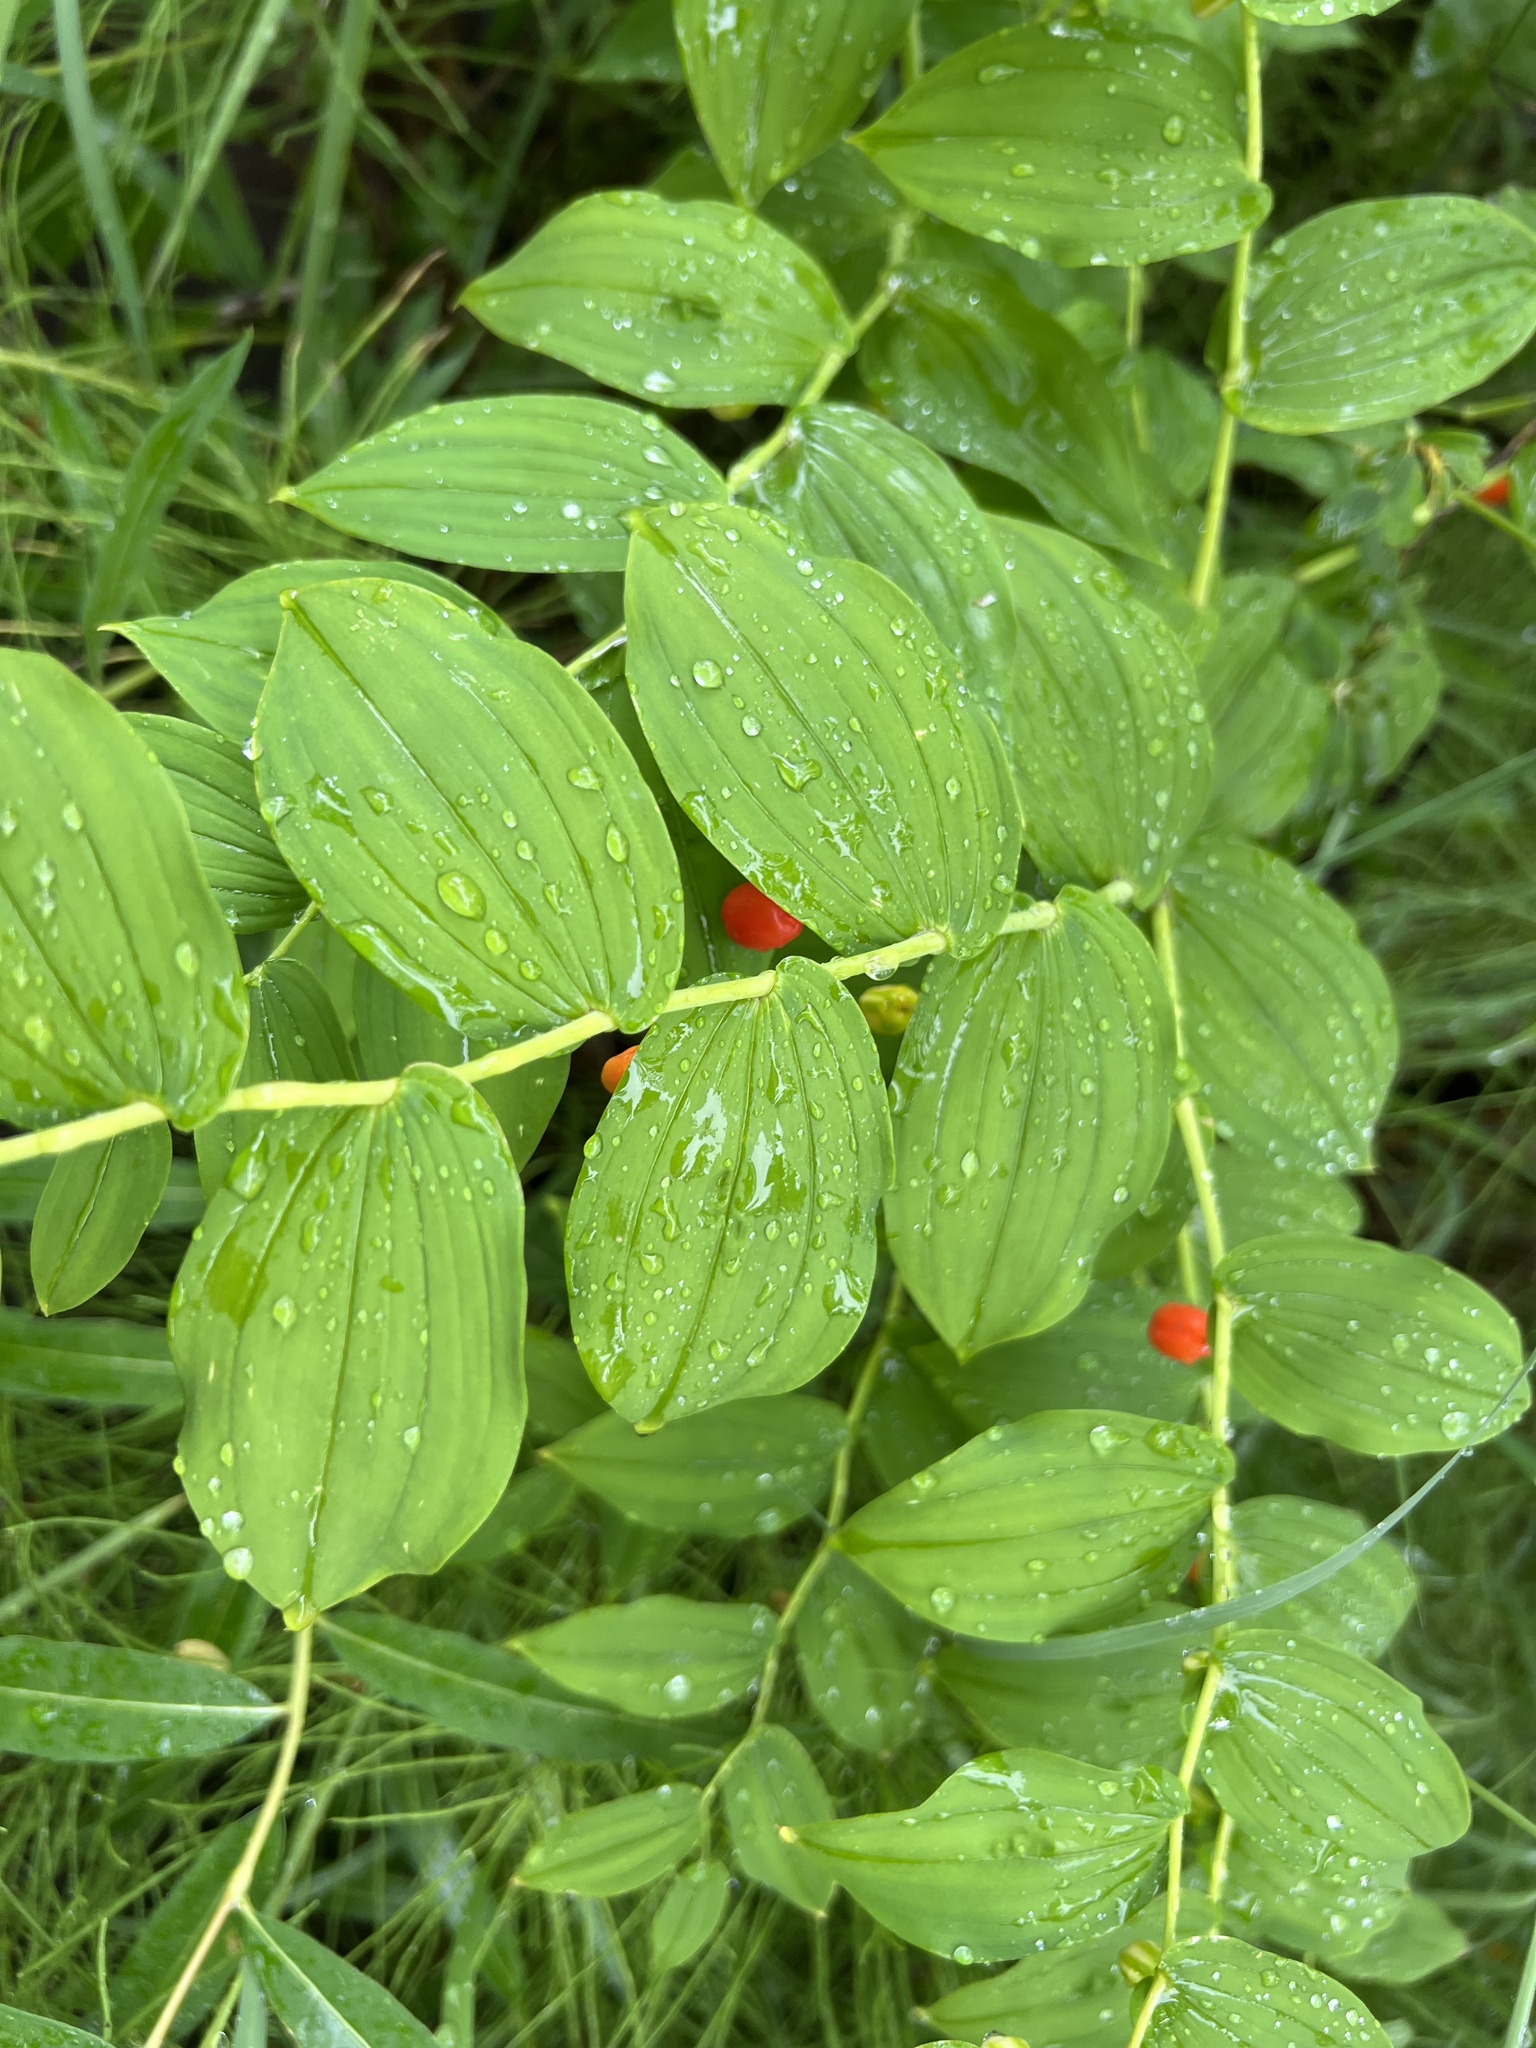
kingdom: Plantae
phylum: Tracheophyta
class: Liliopsida
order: Liliales
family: Liliaceae
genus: Streptopus
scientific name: Streptopus amplexifolius
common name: Clasp twisted stalk
